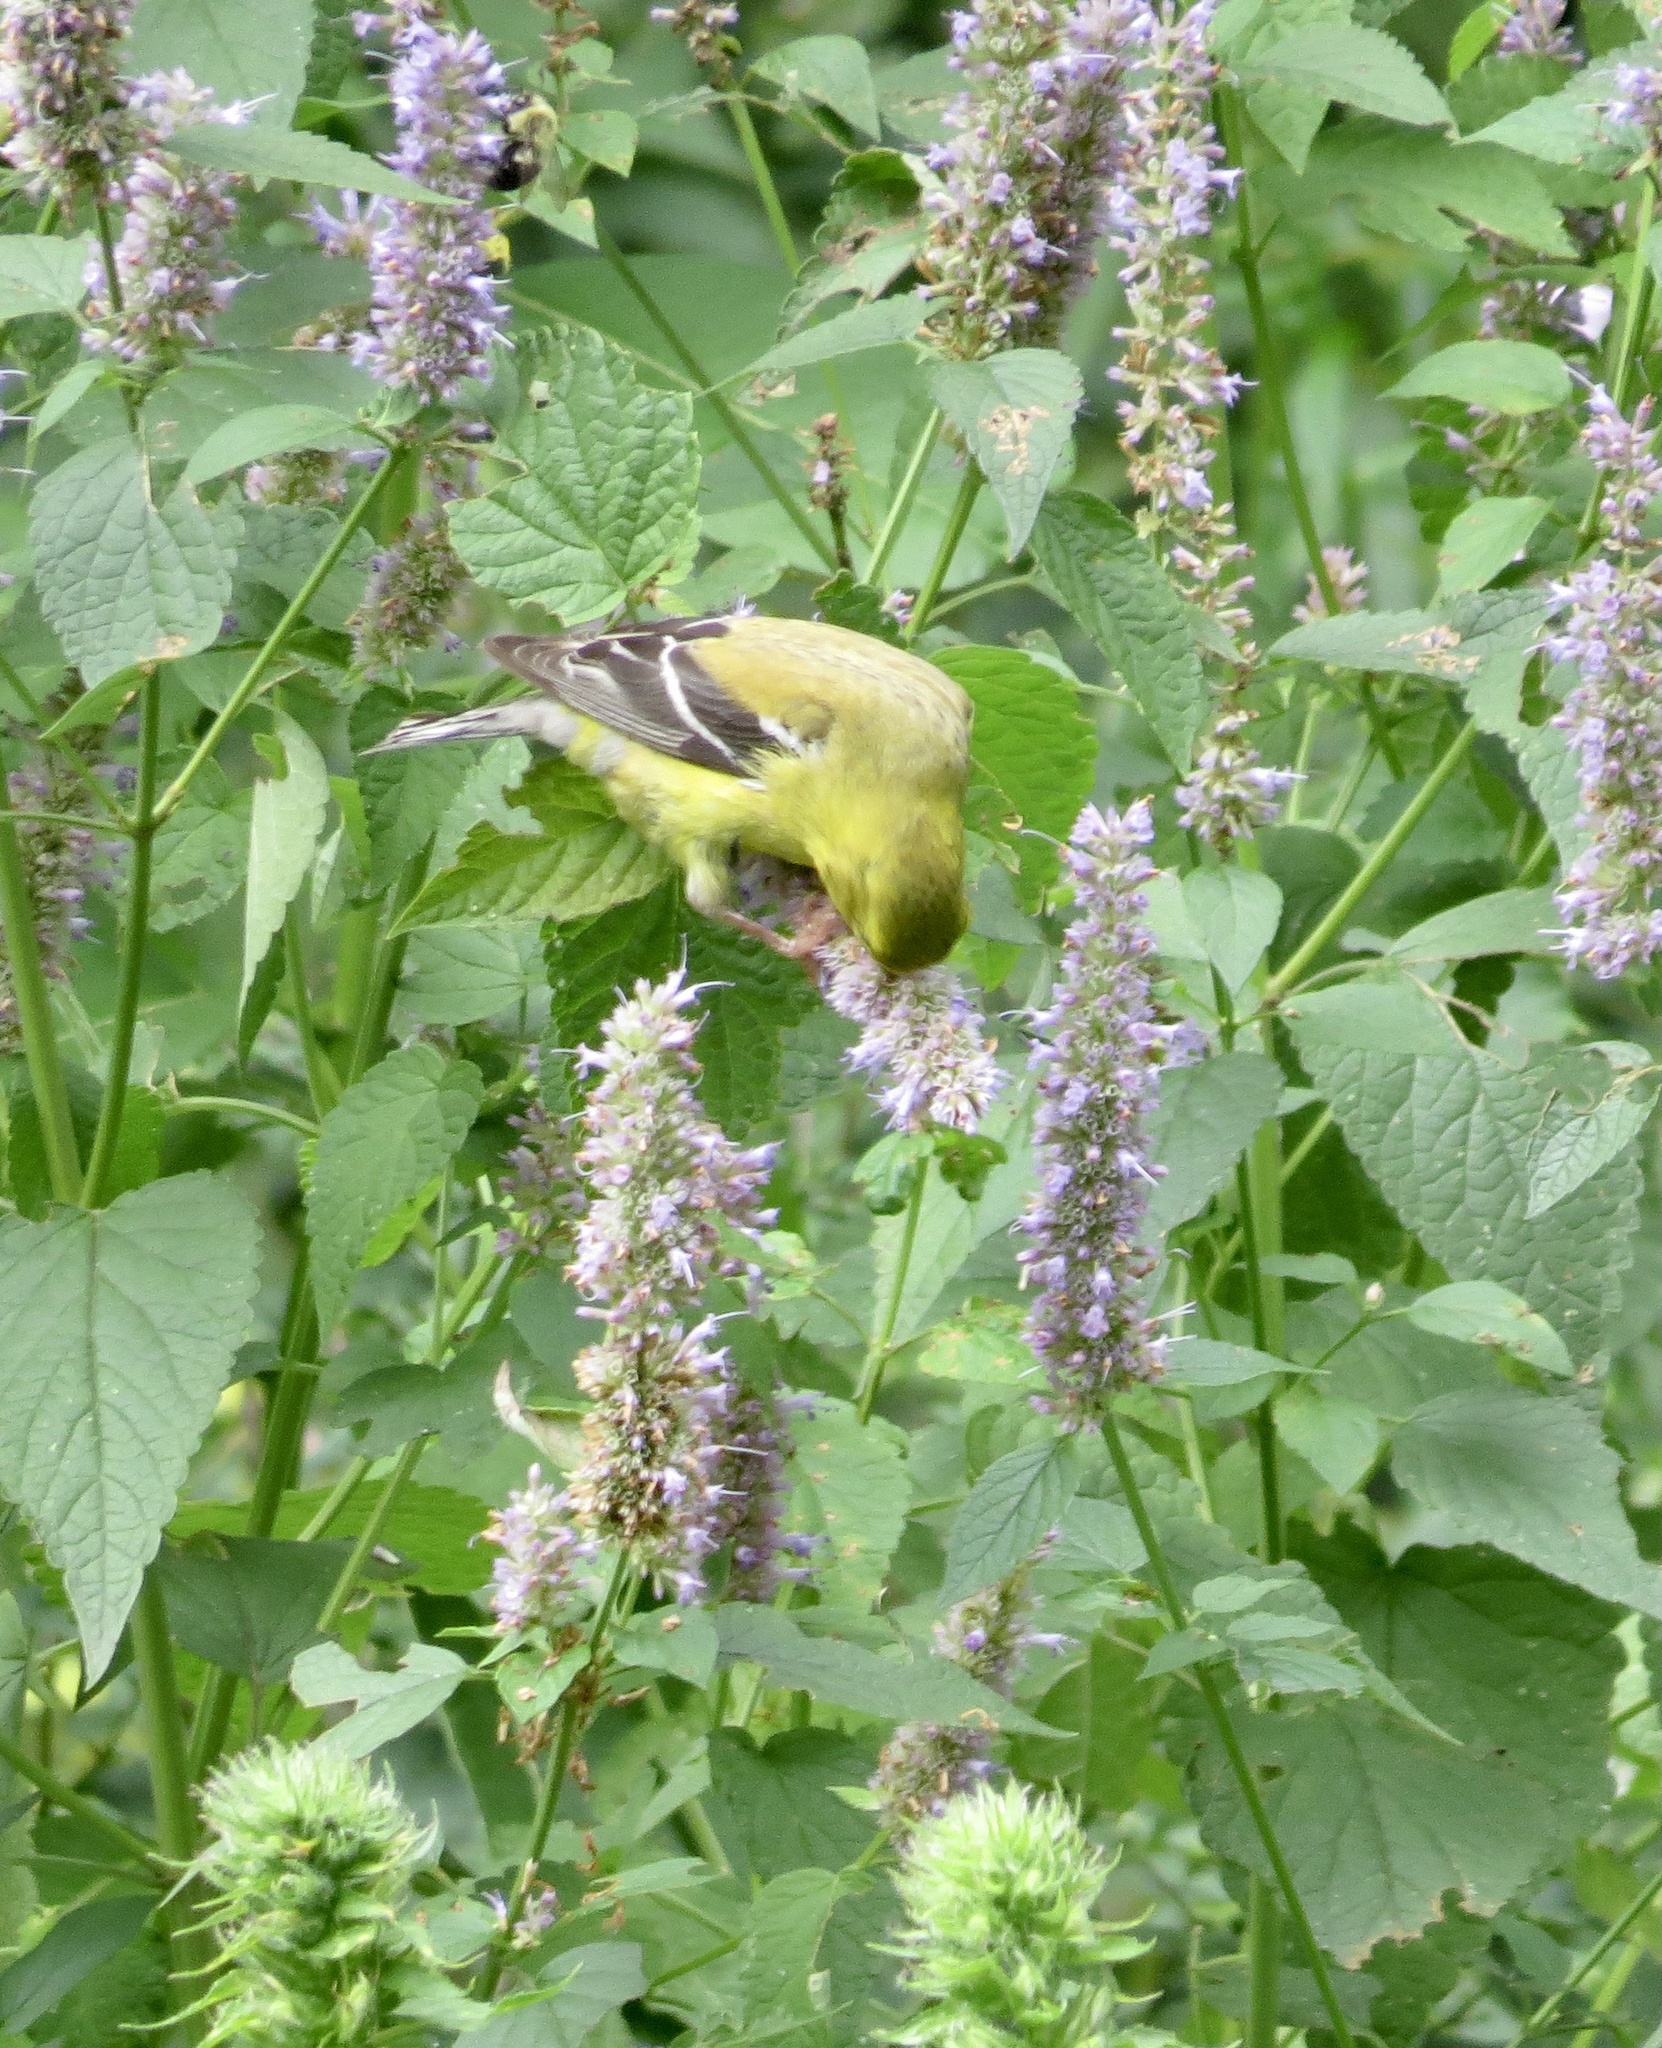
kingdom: Animalia
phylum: Chordata
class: Aves
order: Passeriformes
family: Fringillidae
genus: Spinus
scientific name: Spinus tristis
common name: American goldfinch
